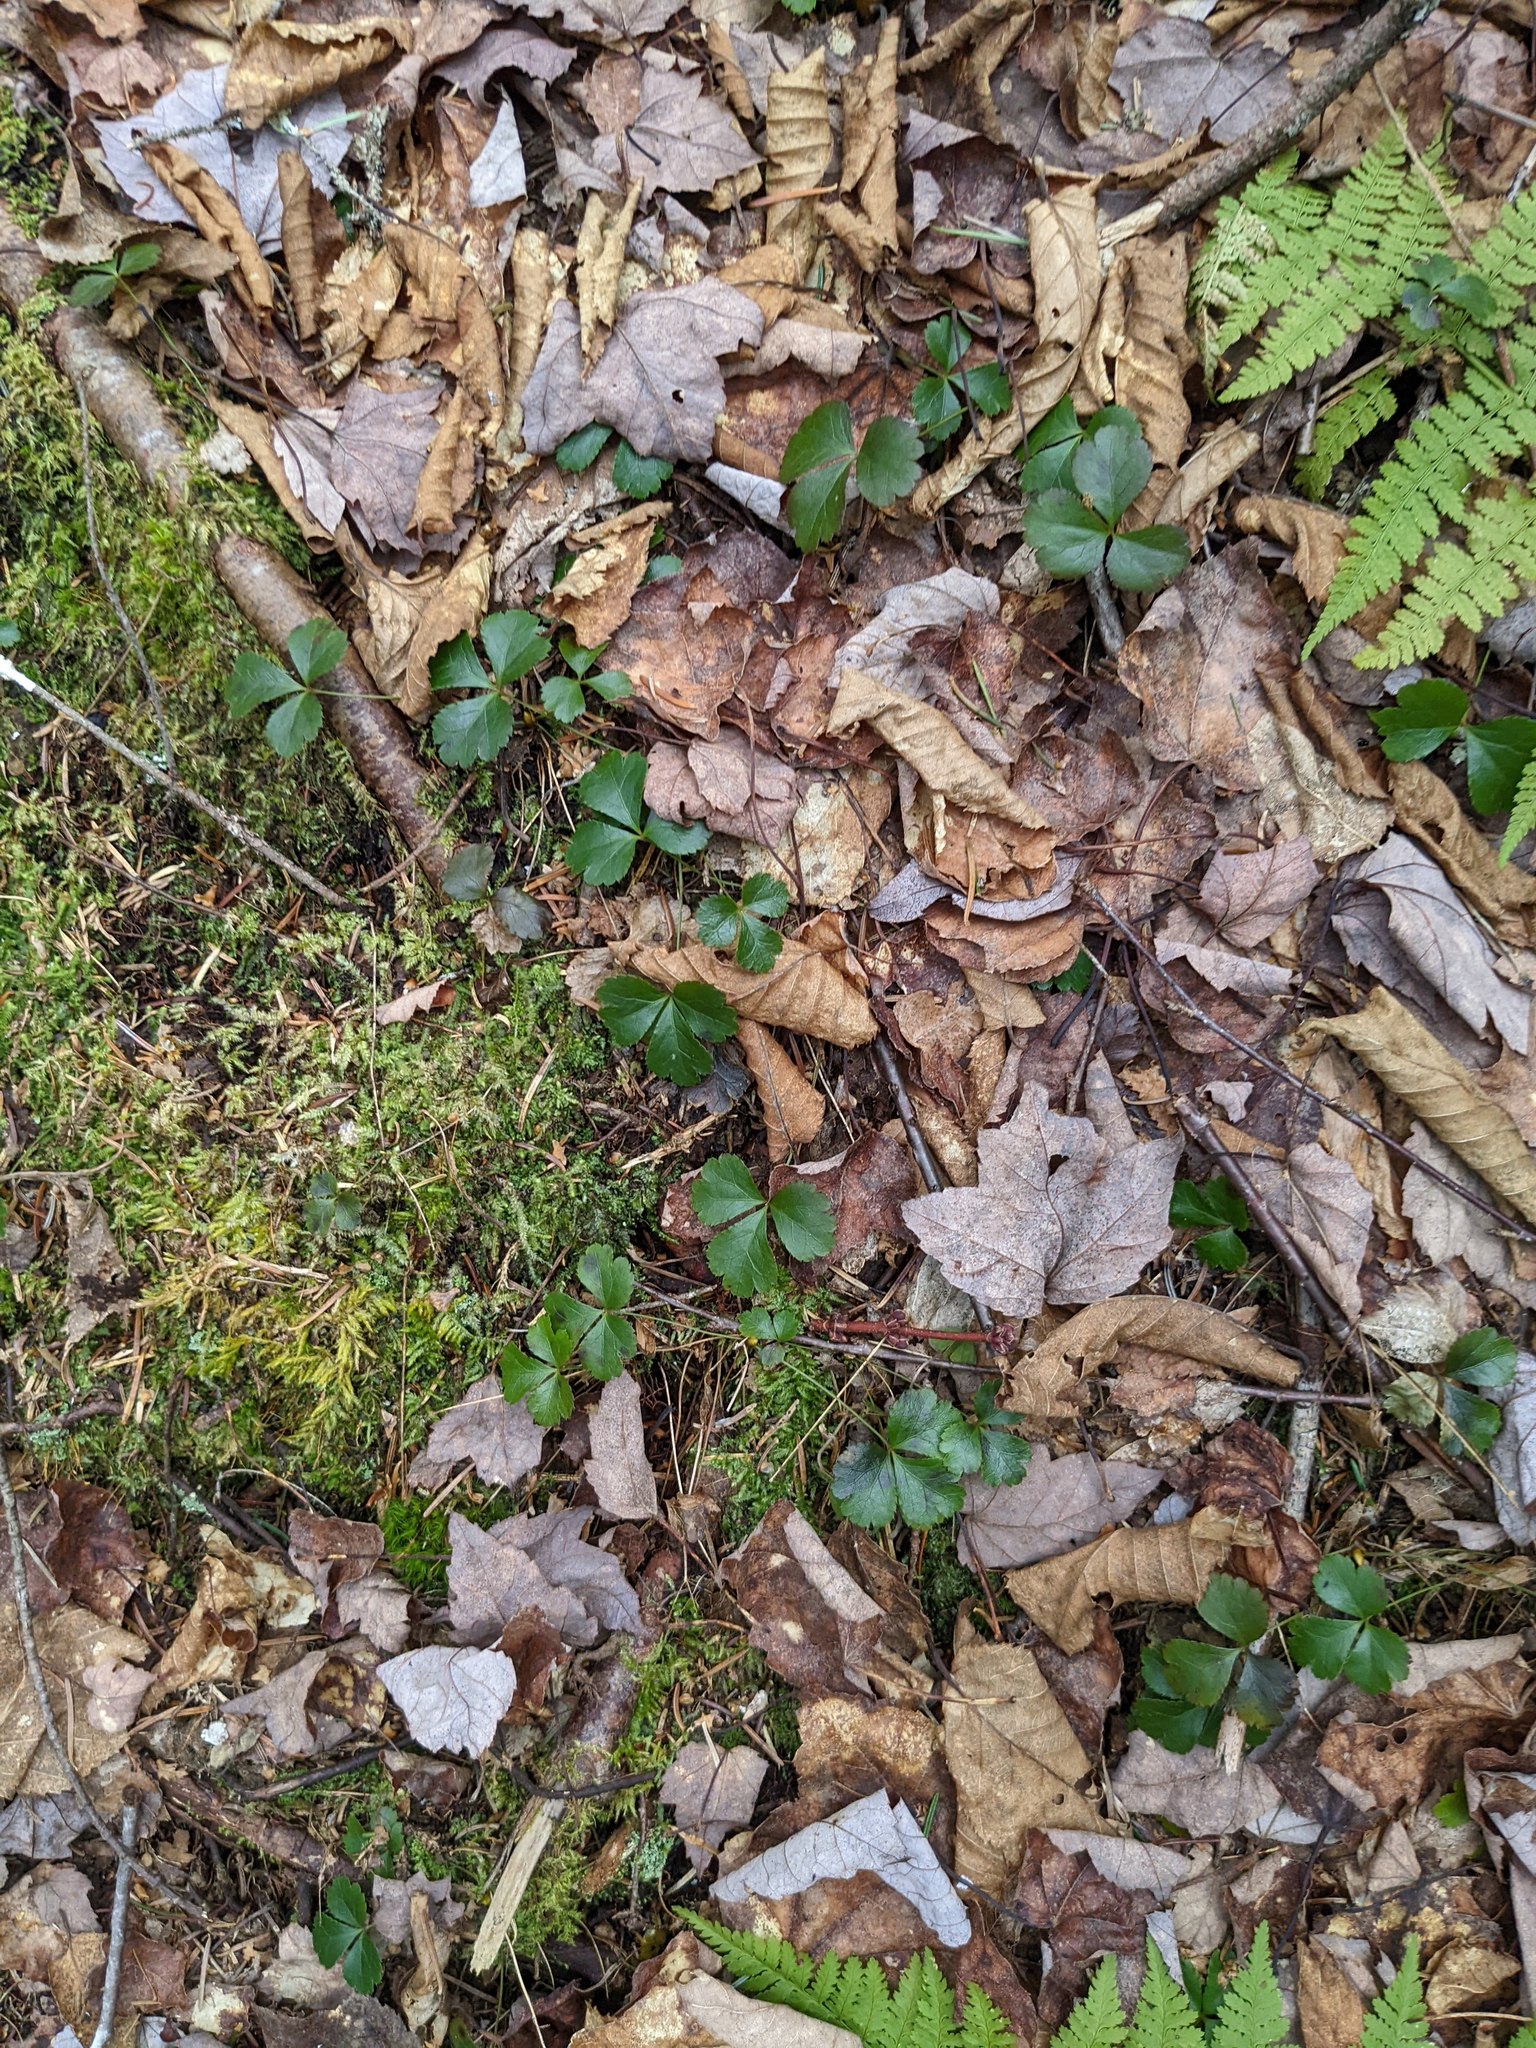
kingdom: Plantae
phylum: Tracheophyta
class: Magnoliopsida
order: Ranunculales
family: Ranunculaceae
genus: Coptis
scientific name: Coptis trifolia
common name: Canker-root
